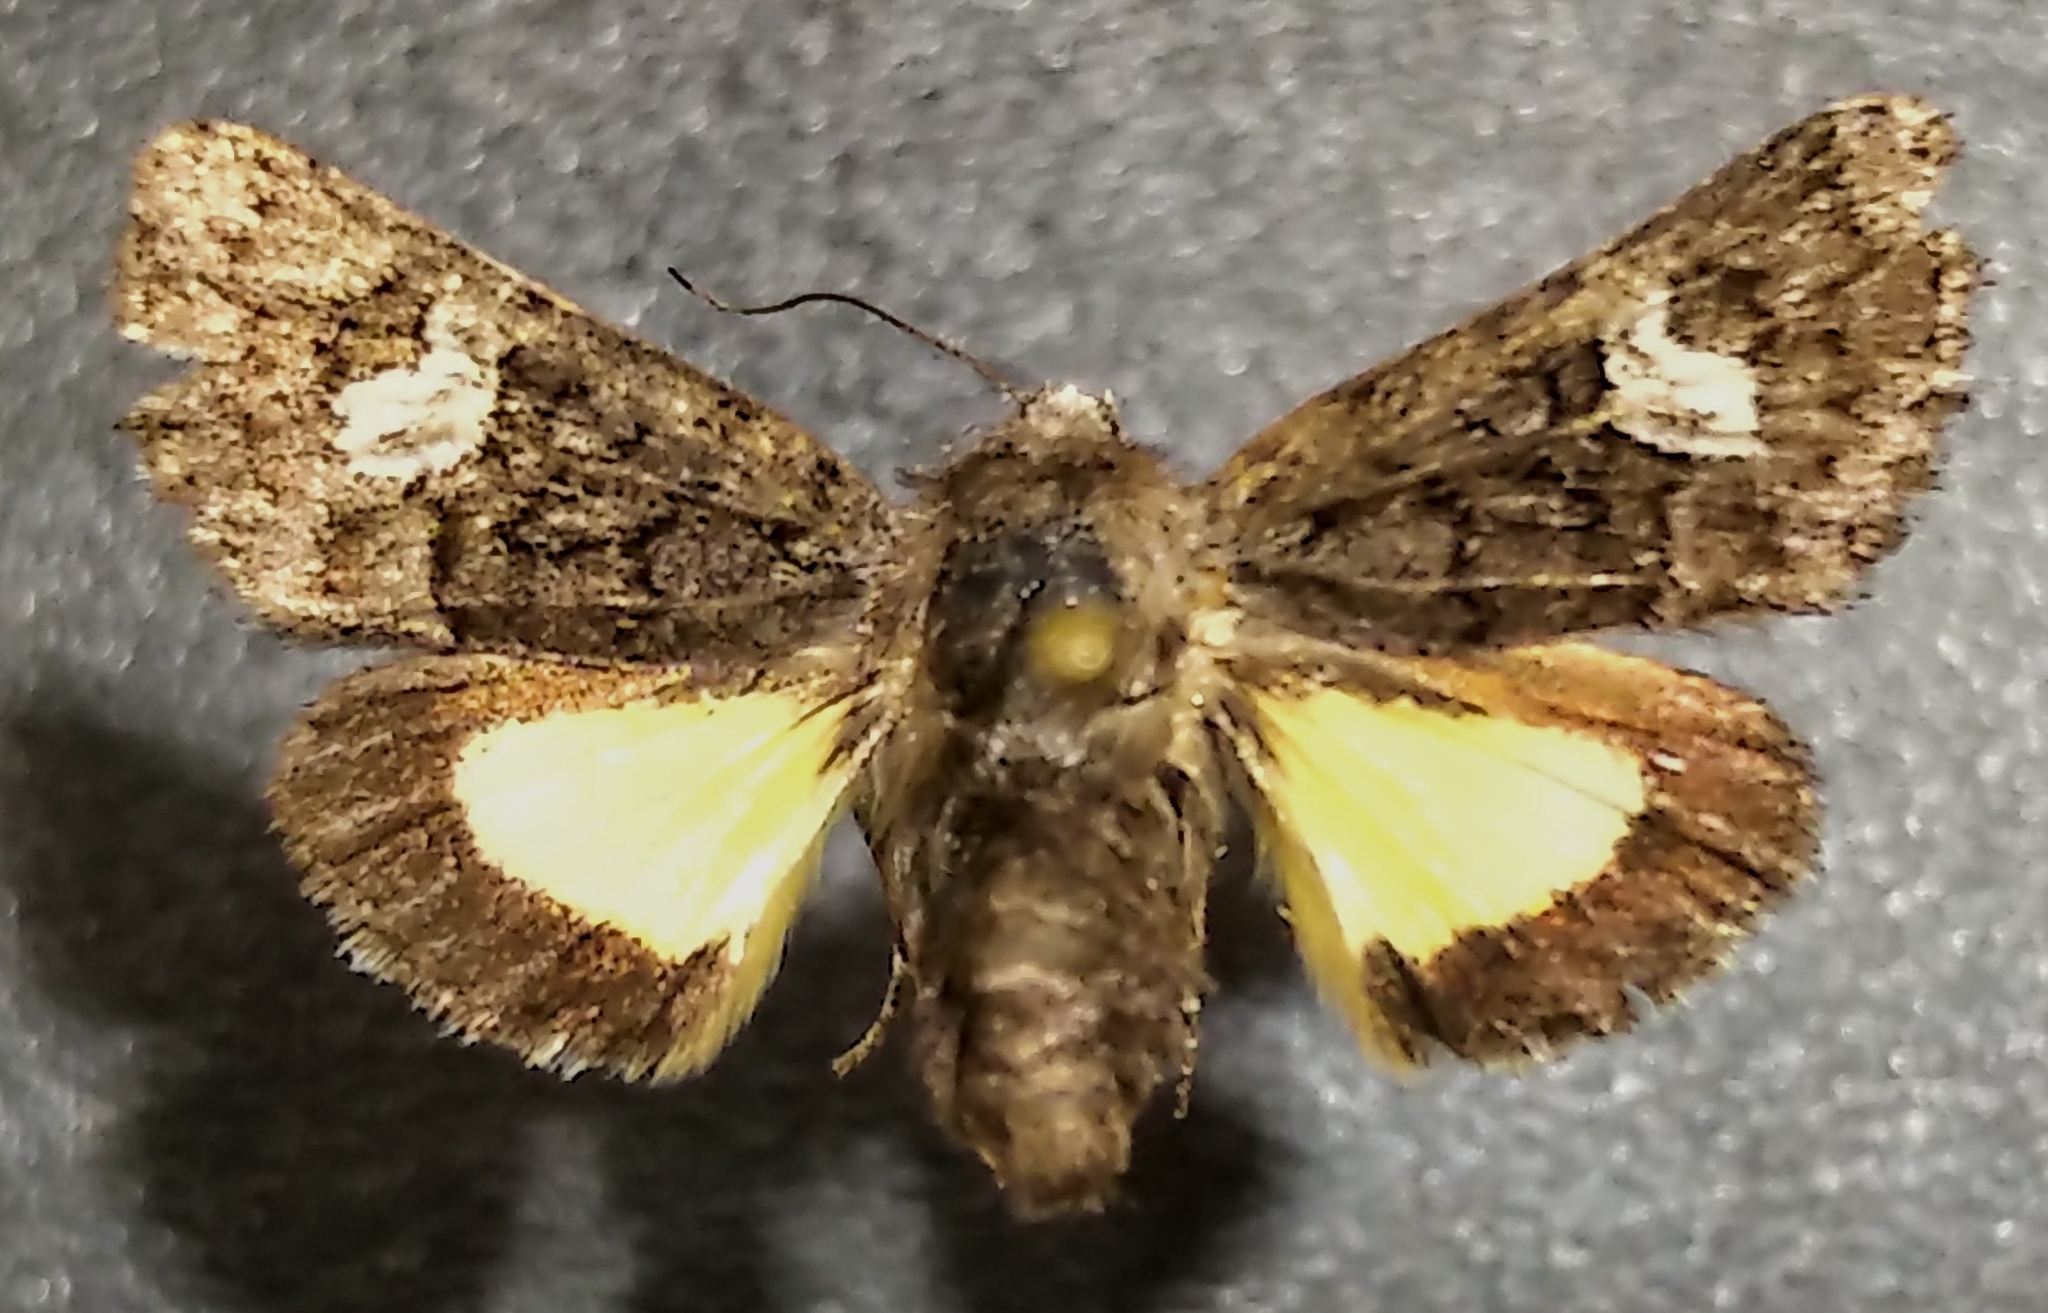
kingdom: Animalia
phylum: Arthropoda
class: Insecta
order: Lepidoptera
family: Noctuidae
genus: Coranarta
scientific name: Coranarta macrostigma
